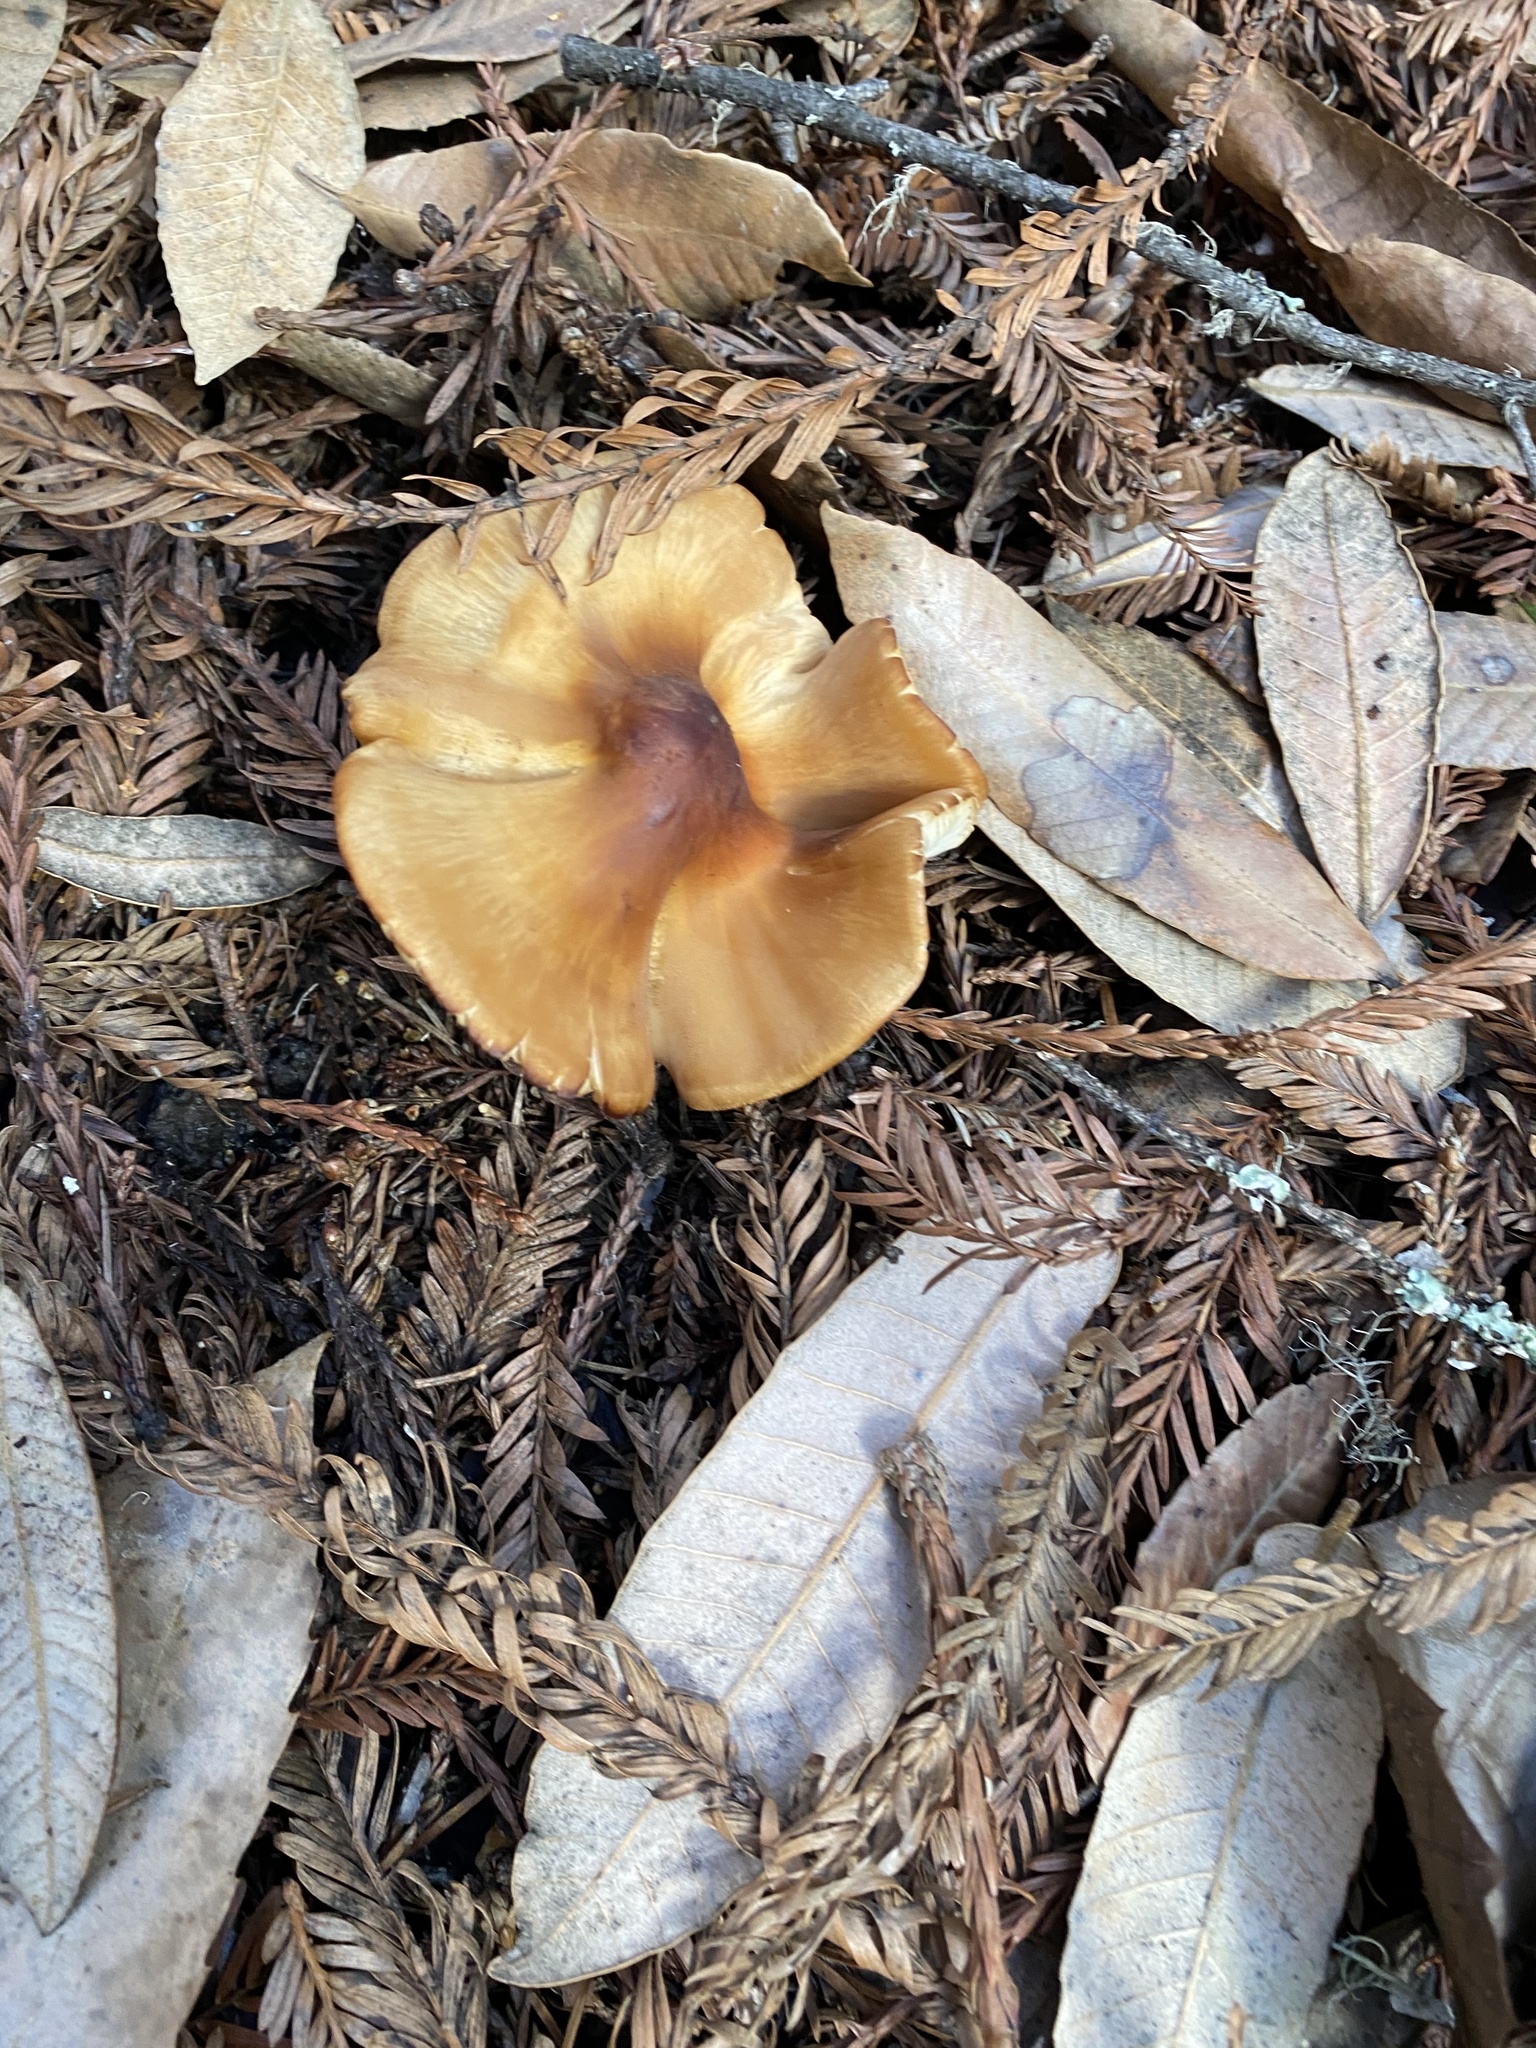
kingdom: Fungi
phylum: Basidiomycota
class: Agaricomycetes
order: Agaricales
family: Tricholomataceae
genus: Caulorhiza
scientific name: Caulorhiza umbonata
